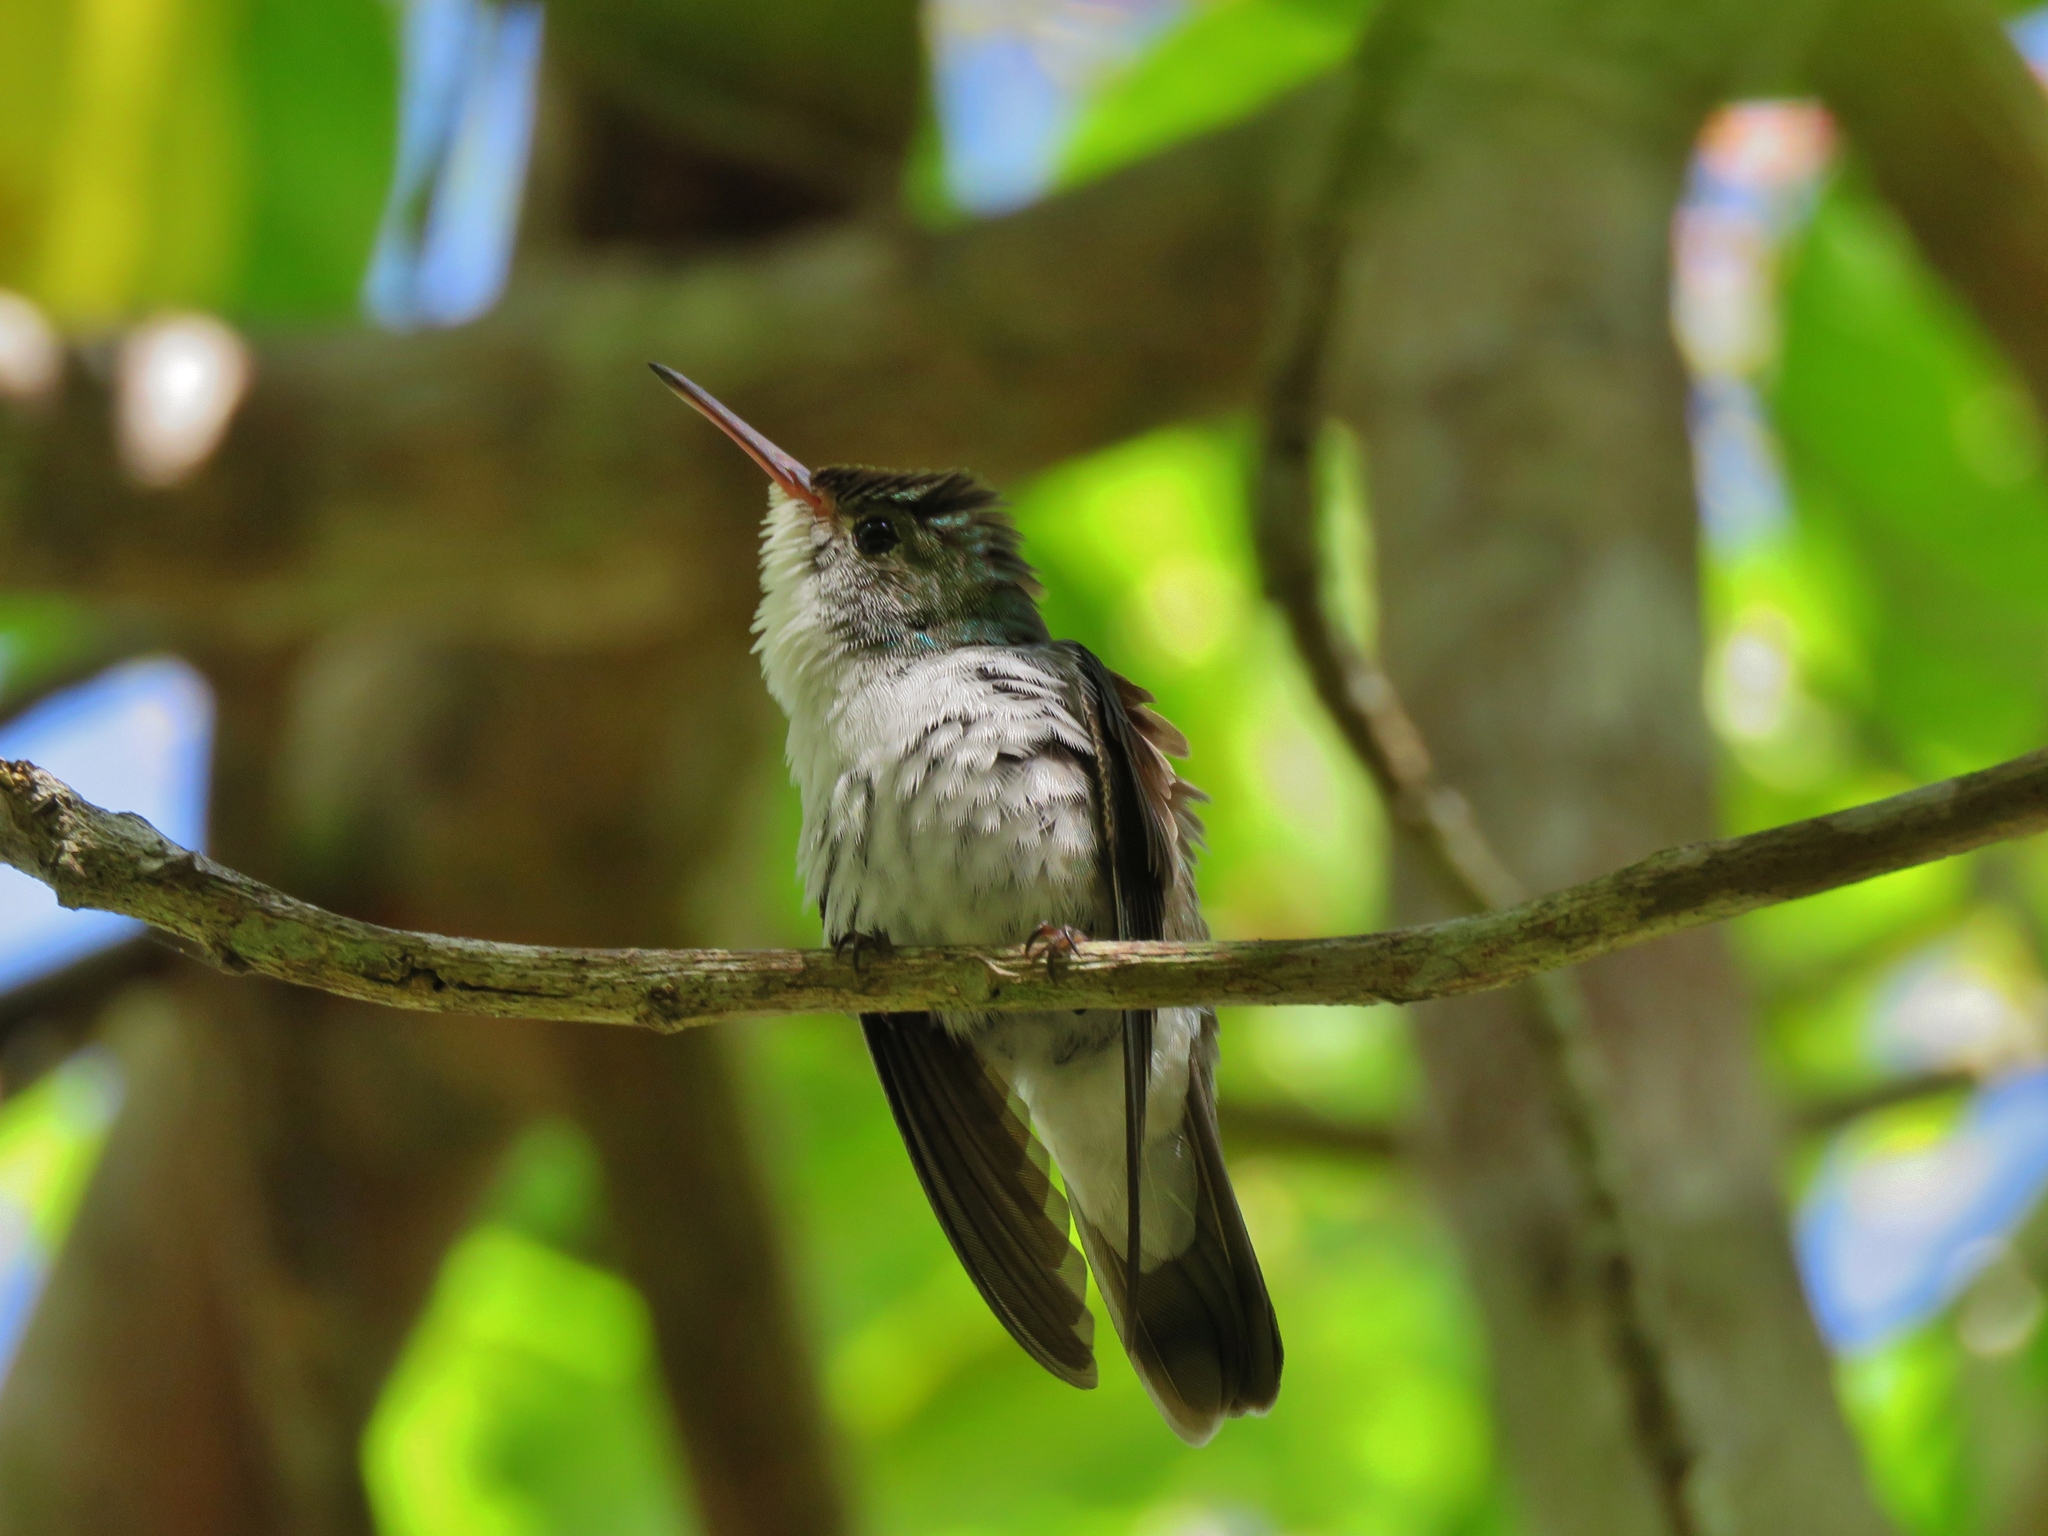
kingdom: Animalia
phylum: Chordata
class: Aves
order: Apodiformes
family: Trochilidae
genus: Chlorestes
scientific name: Chlorestes candida
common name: White-bellied emerald
